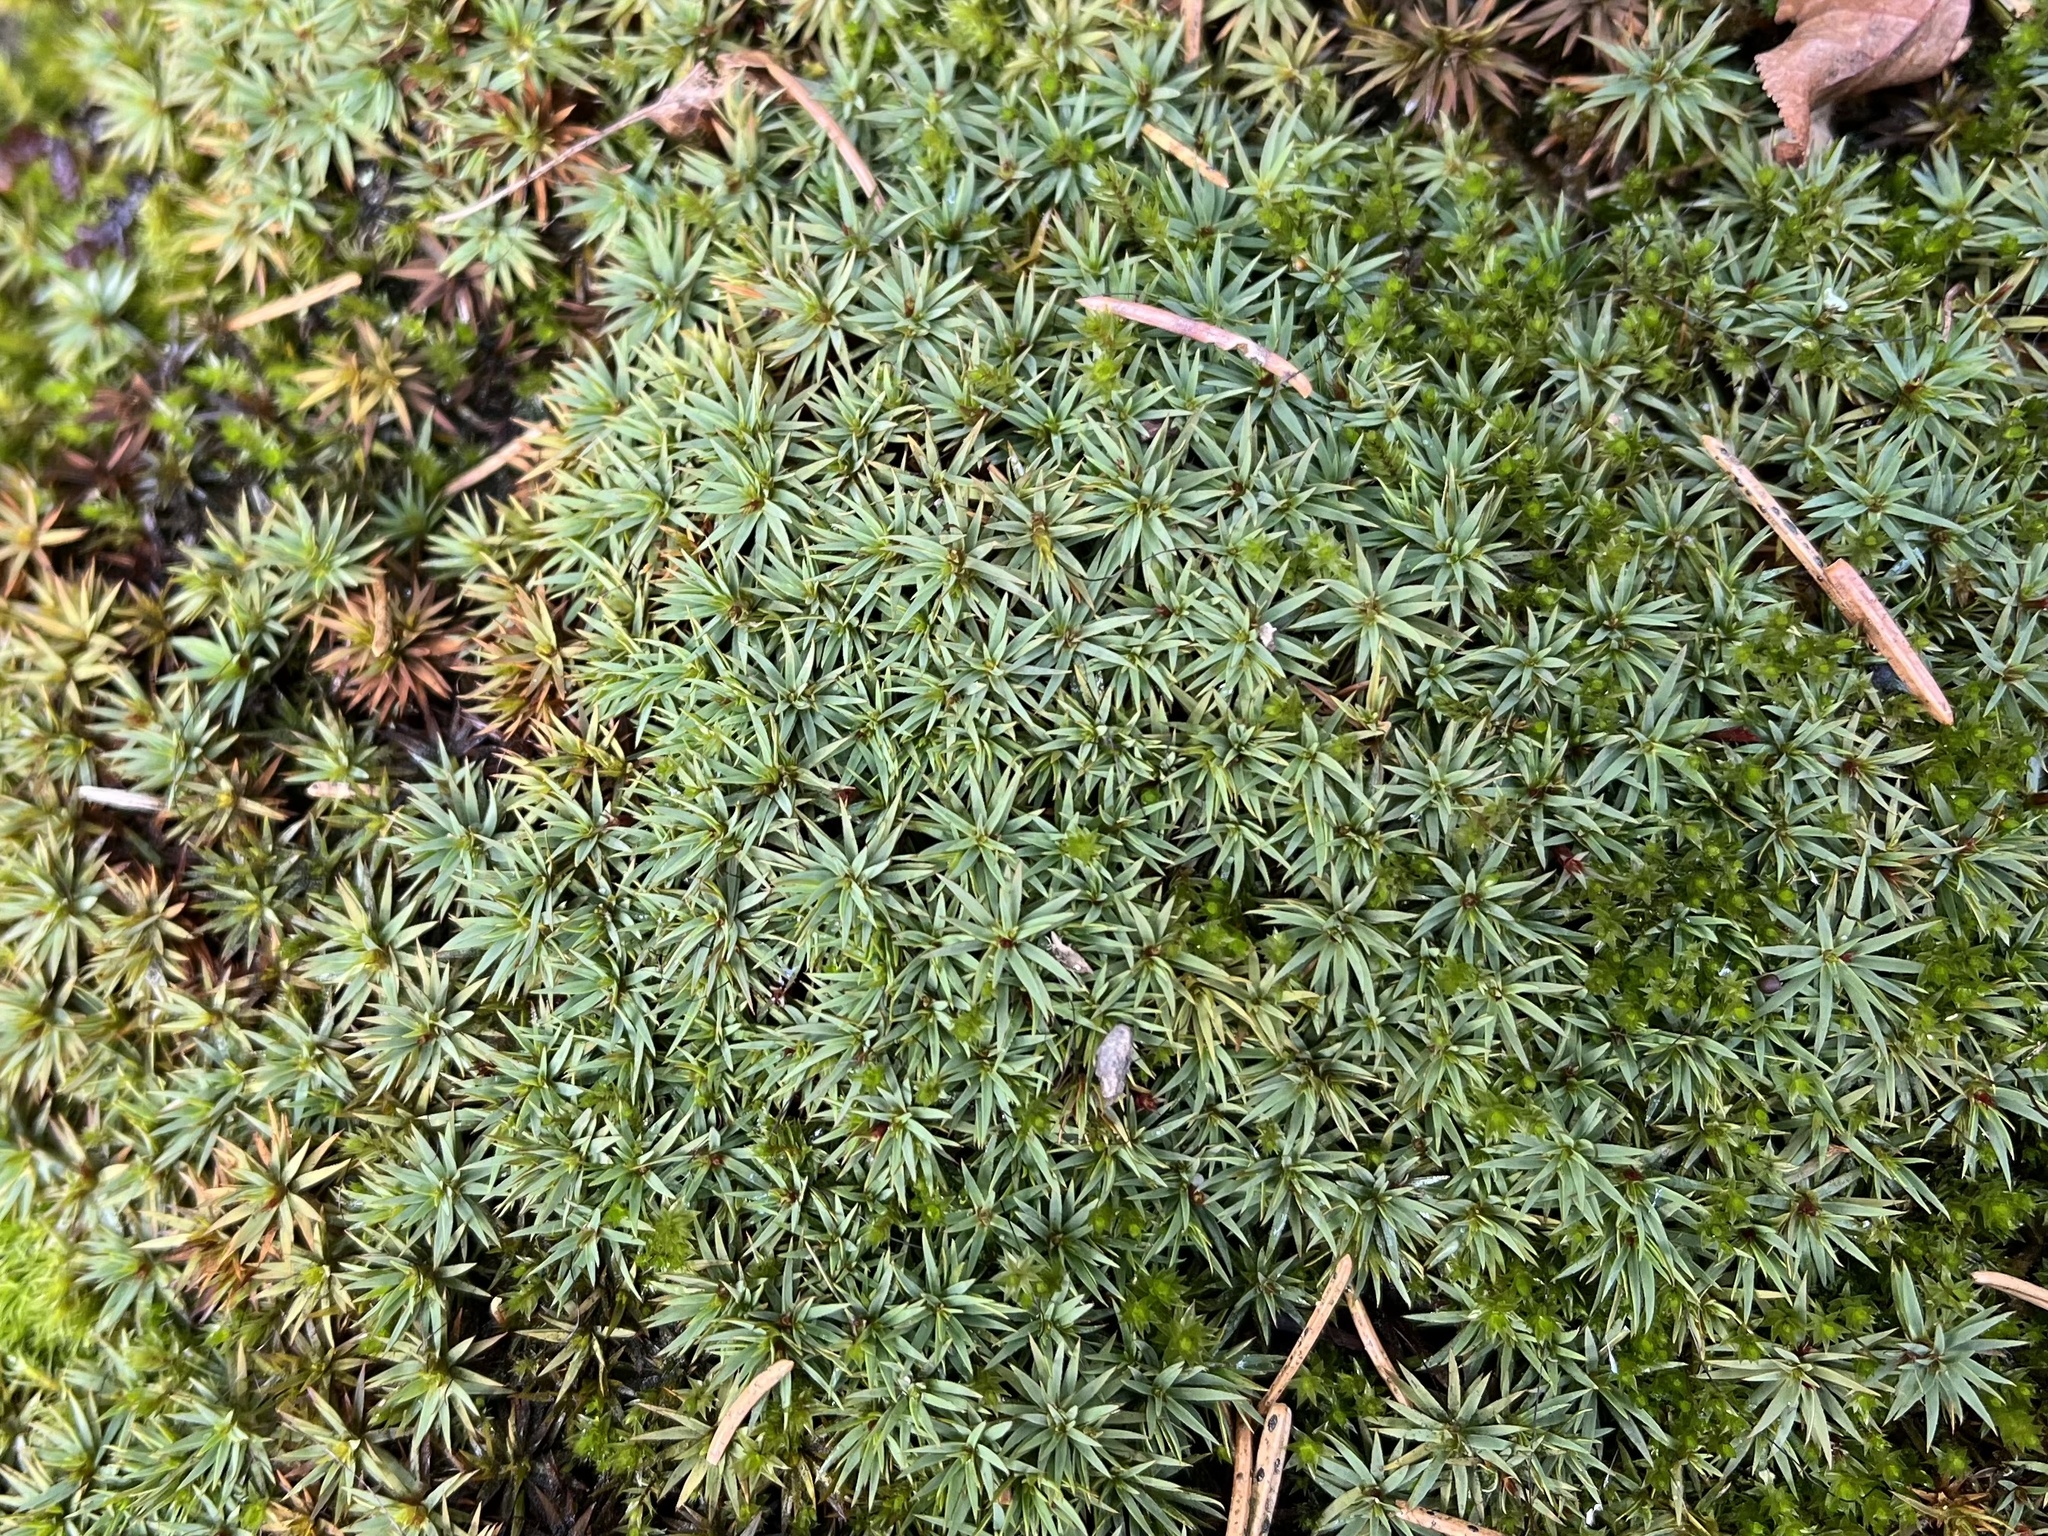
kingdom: Plantae
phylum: Bryophyta
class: Polytrichopsida
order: Polytrichales
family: Polytrichaceae
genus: Pogonatum
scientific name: Pogonatum urnigerum
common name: Urn hair moss
